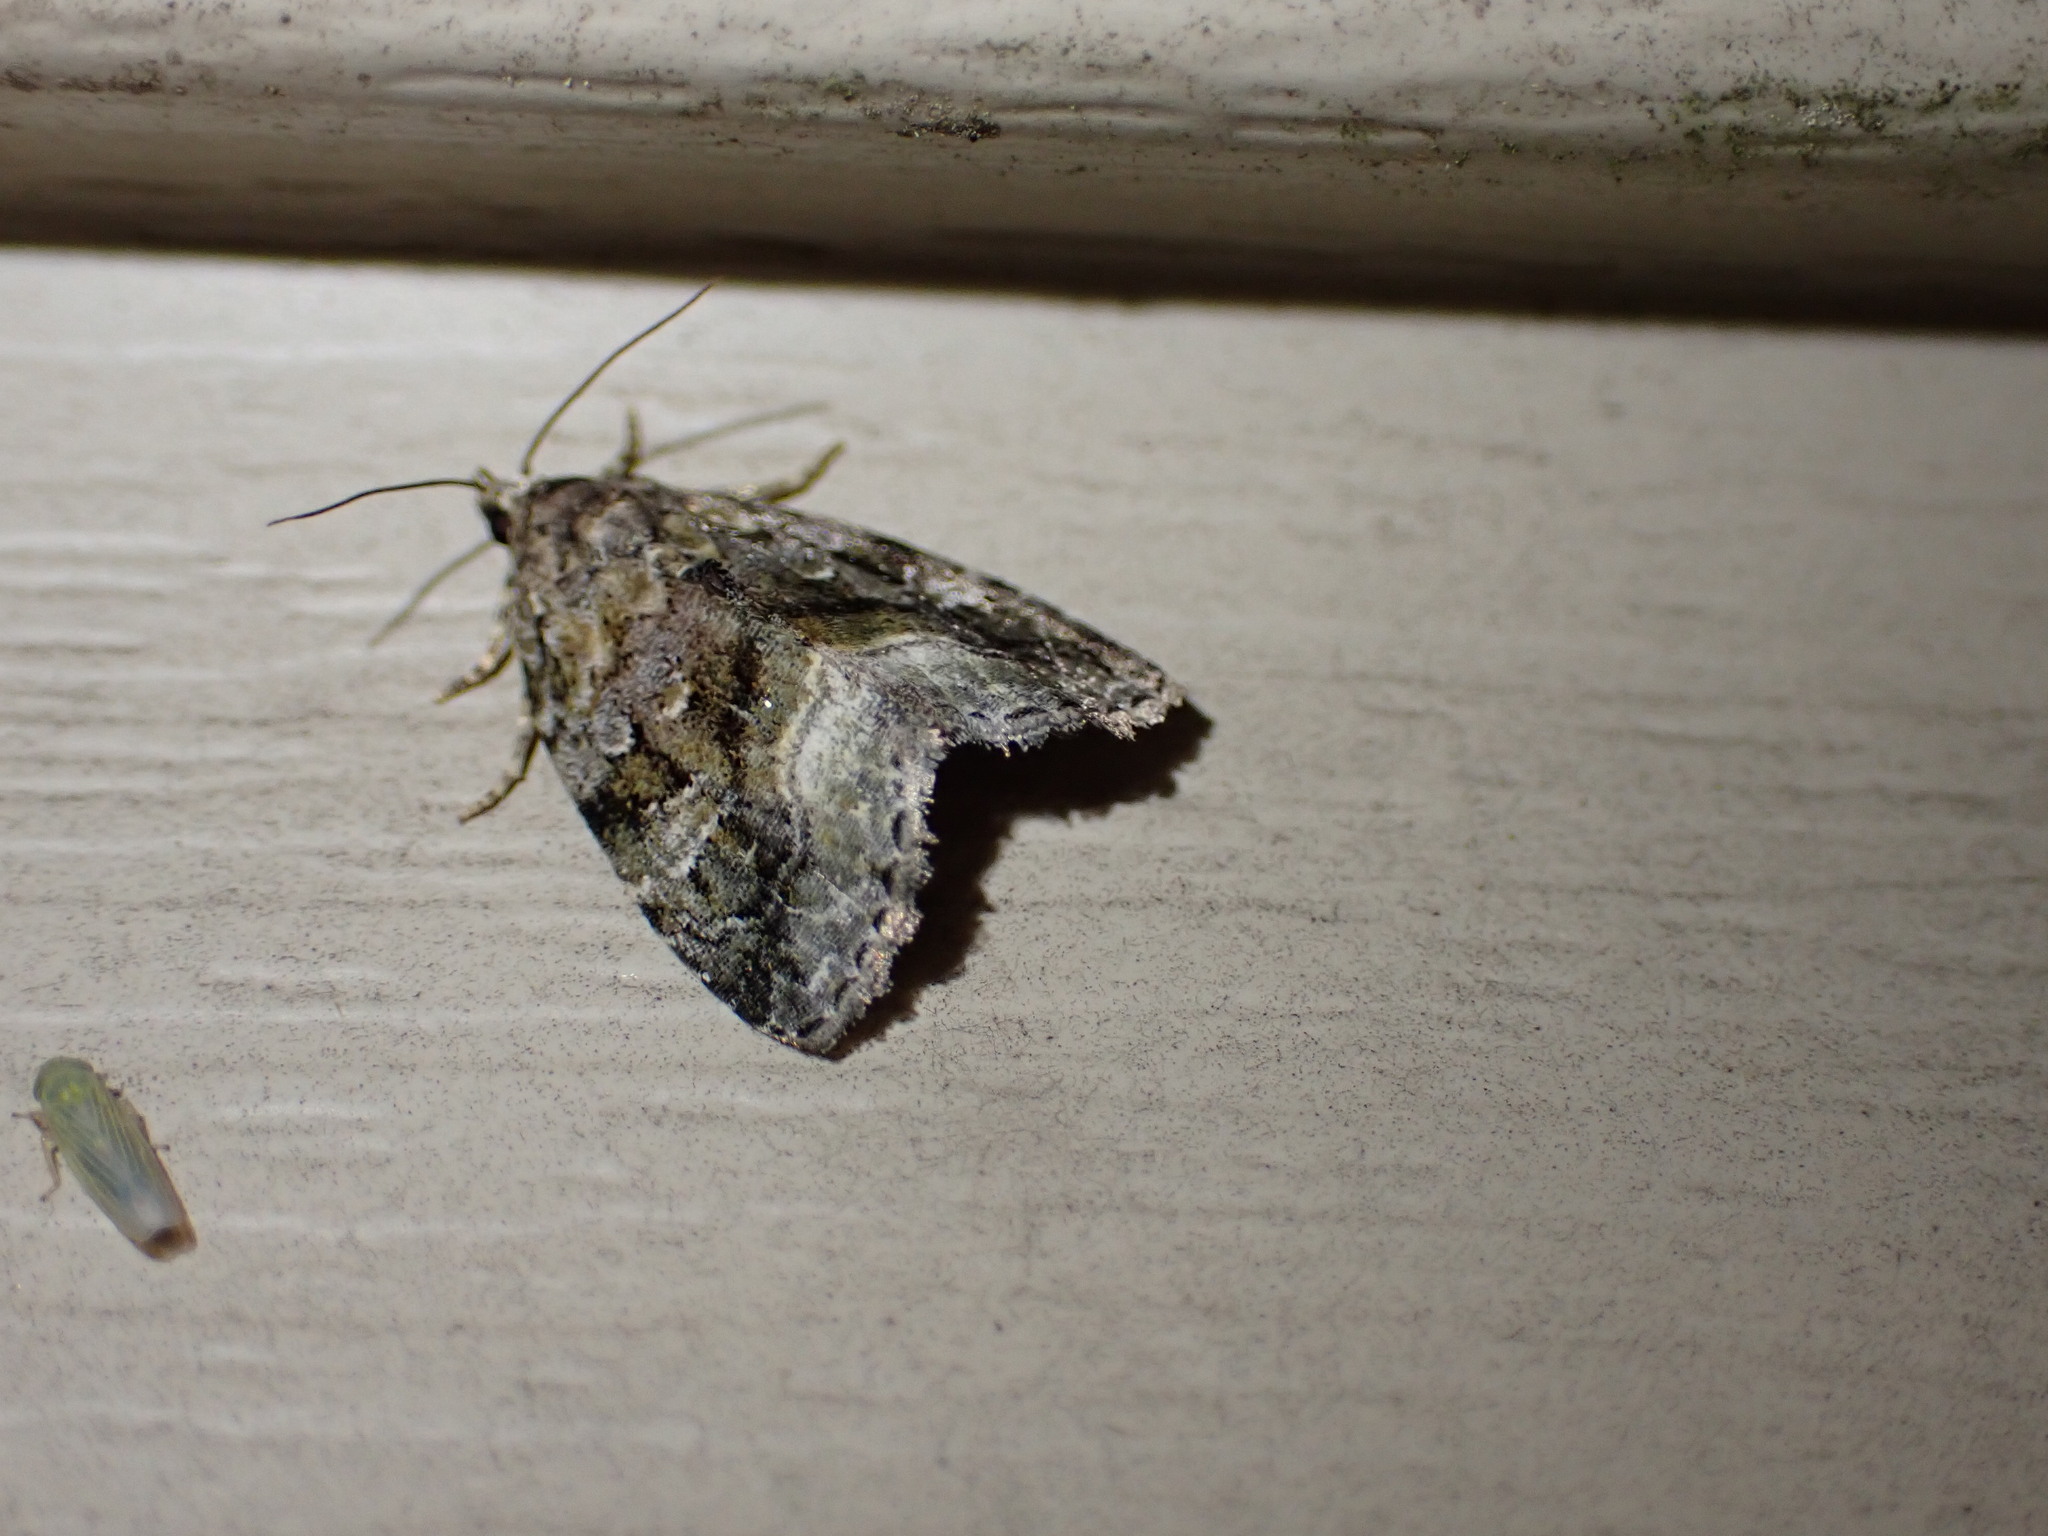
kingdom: Animalia
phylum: Arthropoda
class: Insecta
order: Lepidoptera
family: Noctuidae
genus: Protodeltote
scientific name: Protodeltote muscosula
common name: Large mossy glyph
